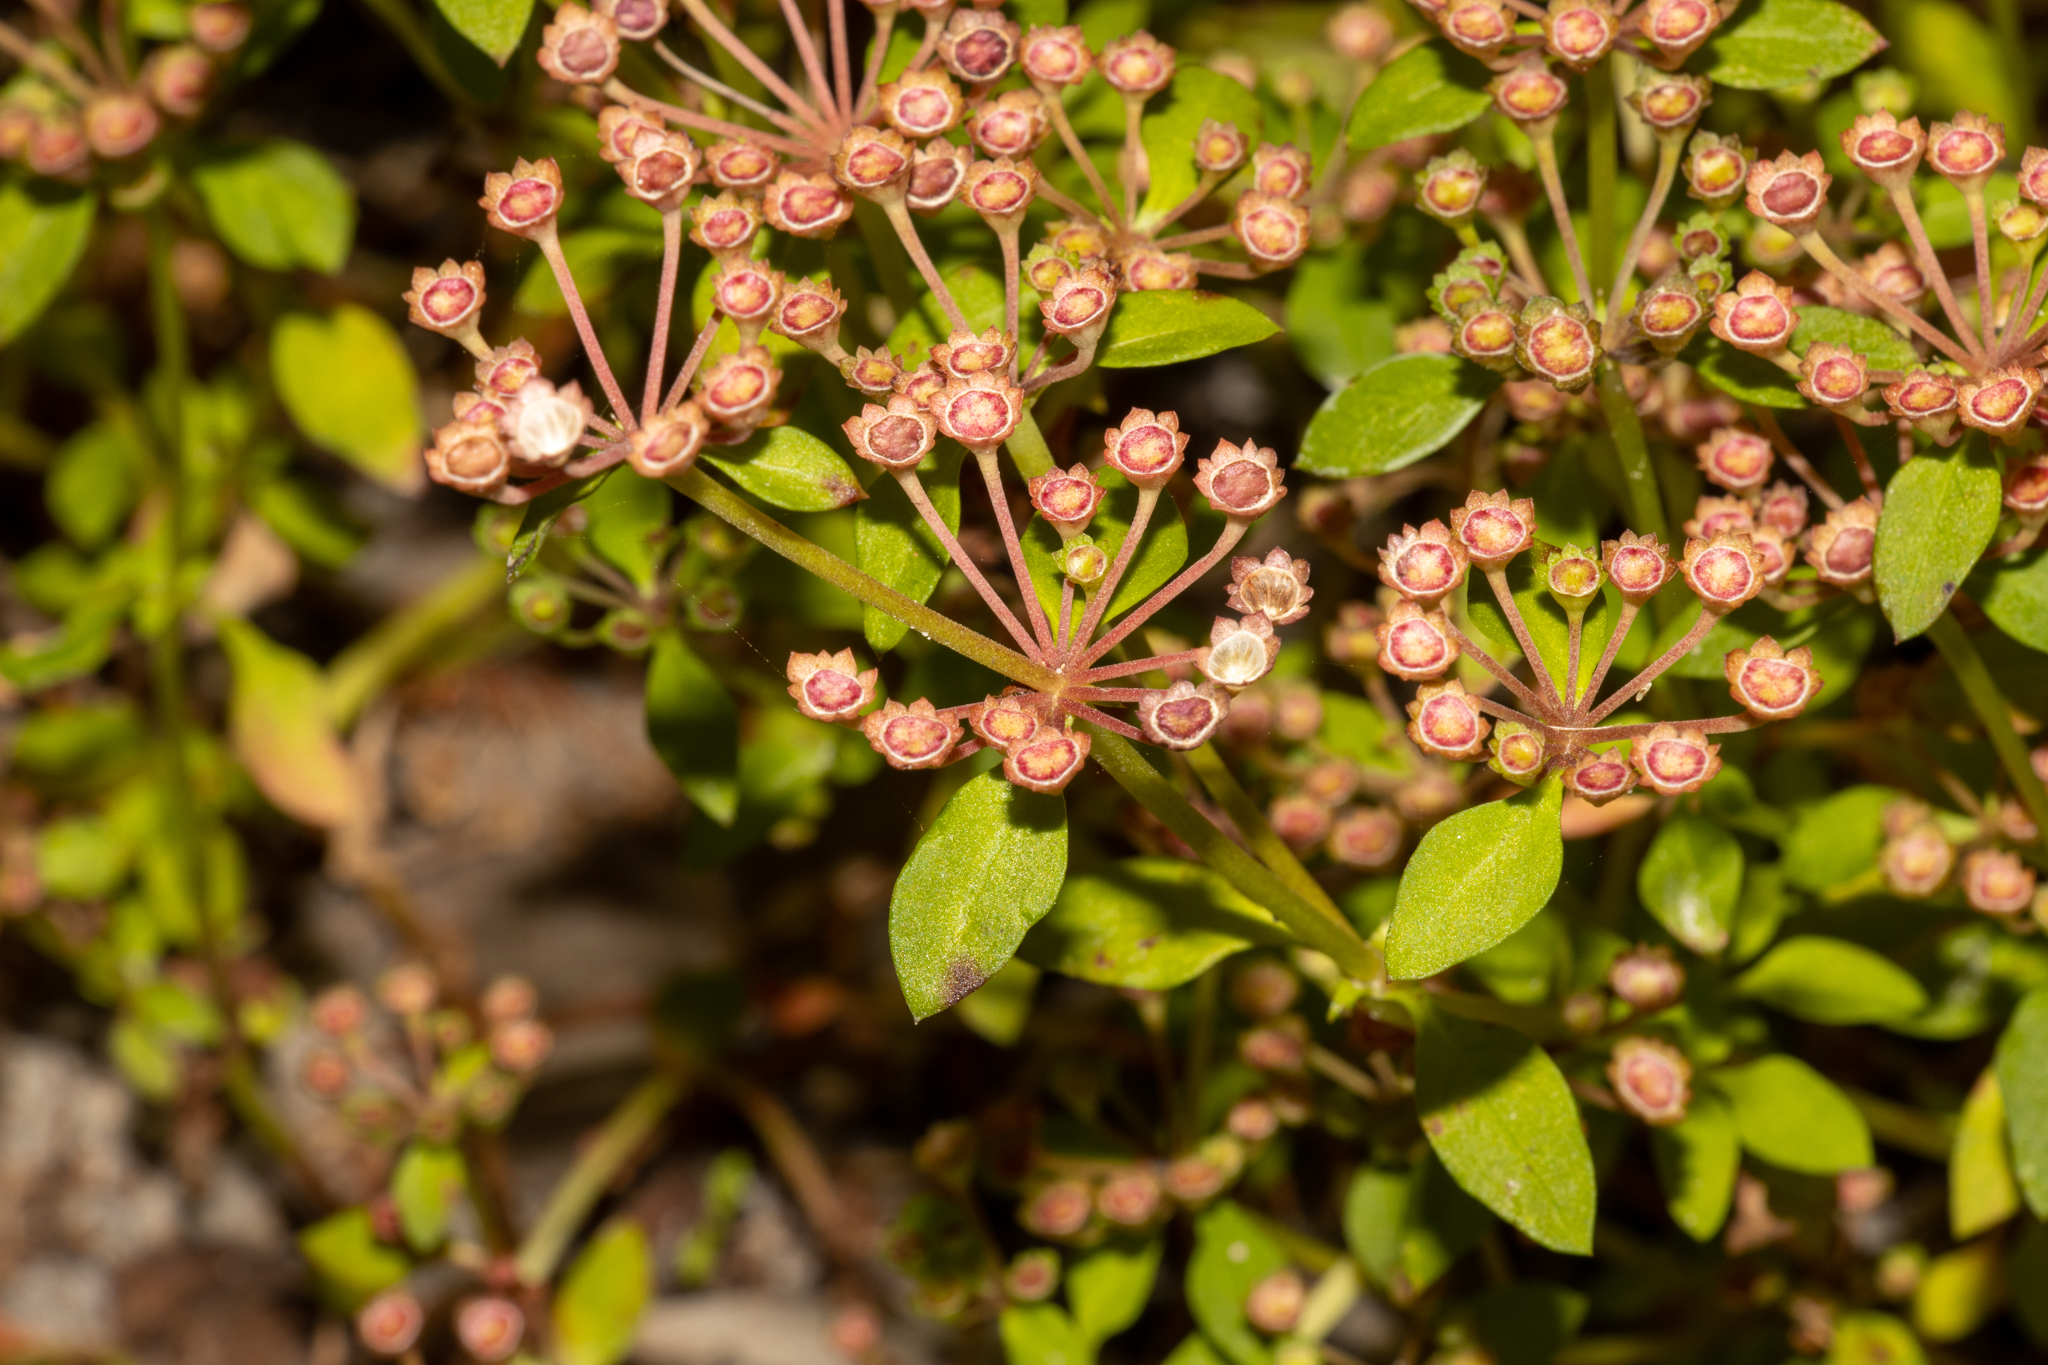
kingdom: Plantae
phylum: Tracheophyta
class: Magnoliopsida
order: Gentianales
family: Rubiaceae
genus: Pomax
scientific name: Pomax umbellata
